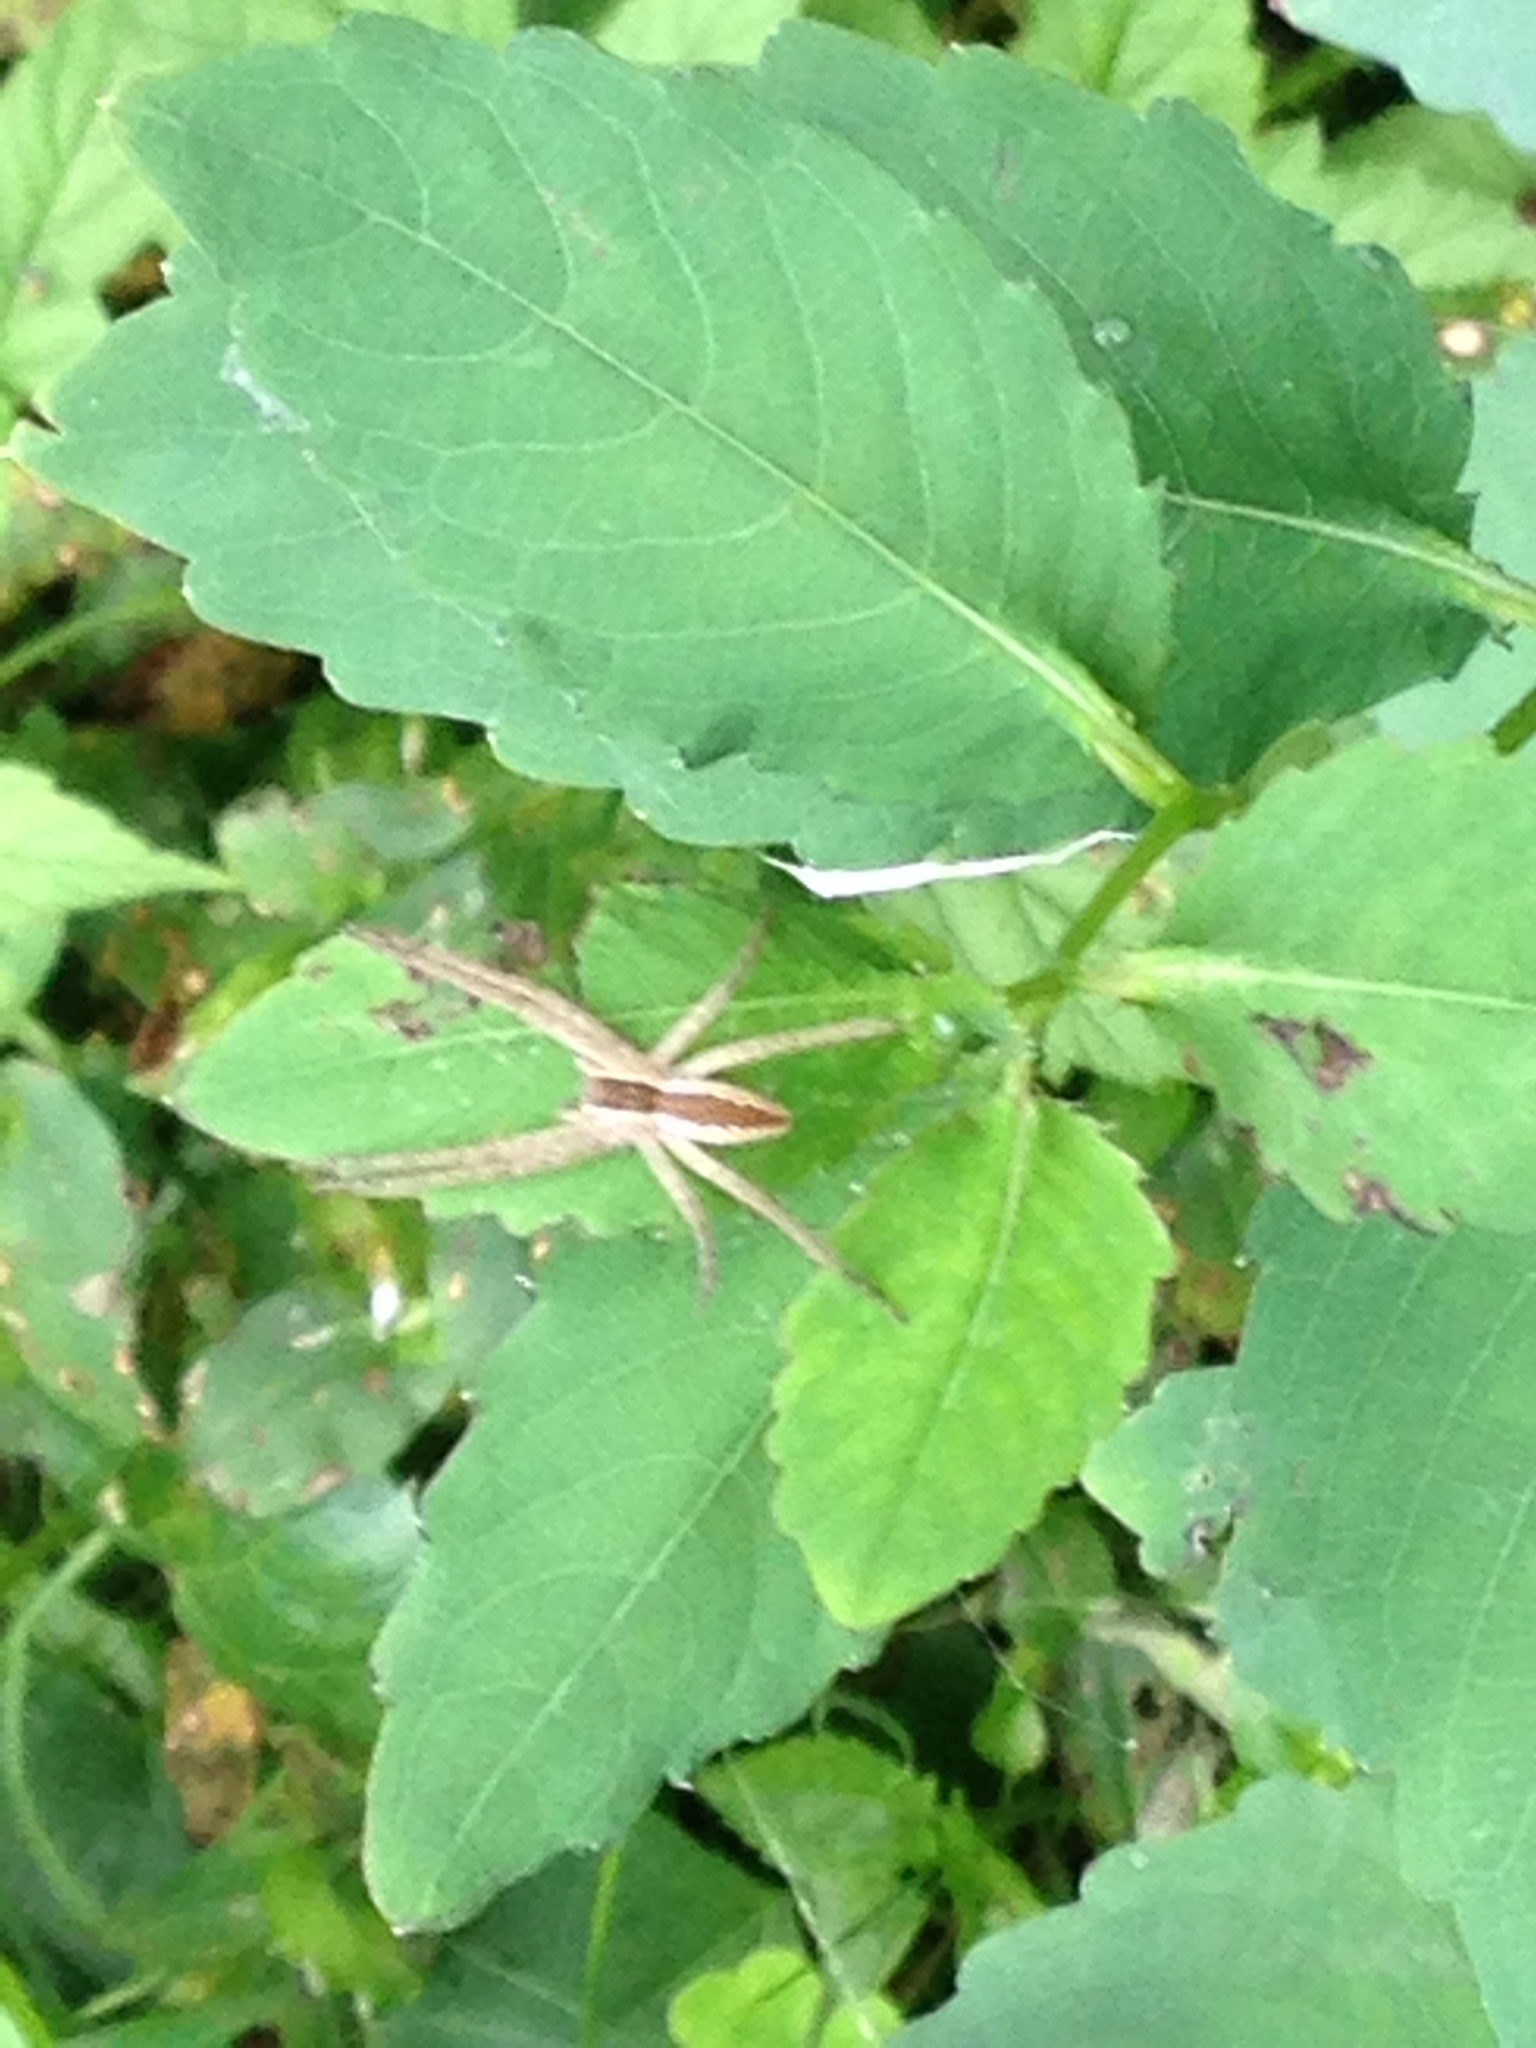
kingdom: Animalia
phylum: Arthropoda
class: Arachnida
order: Araneae
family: Pisauridae
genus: Pisaurina
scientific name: Pisaurina mira
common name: American nursery web spider
